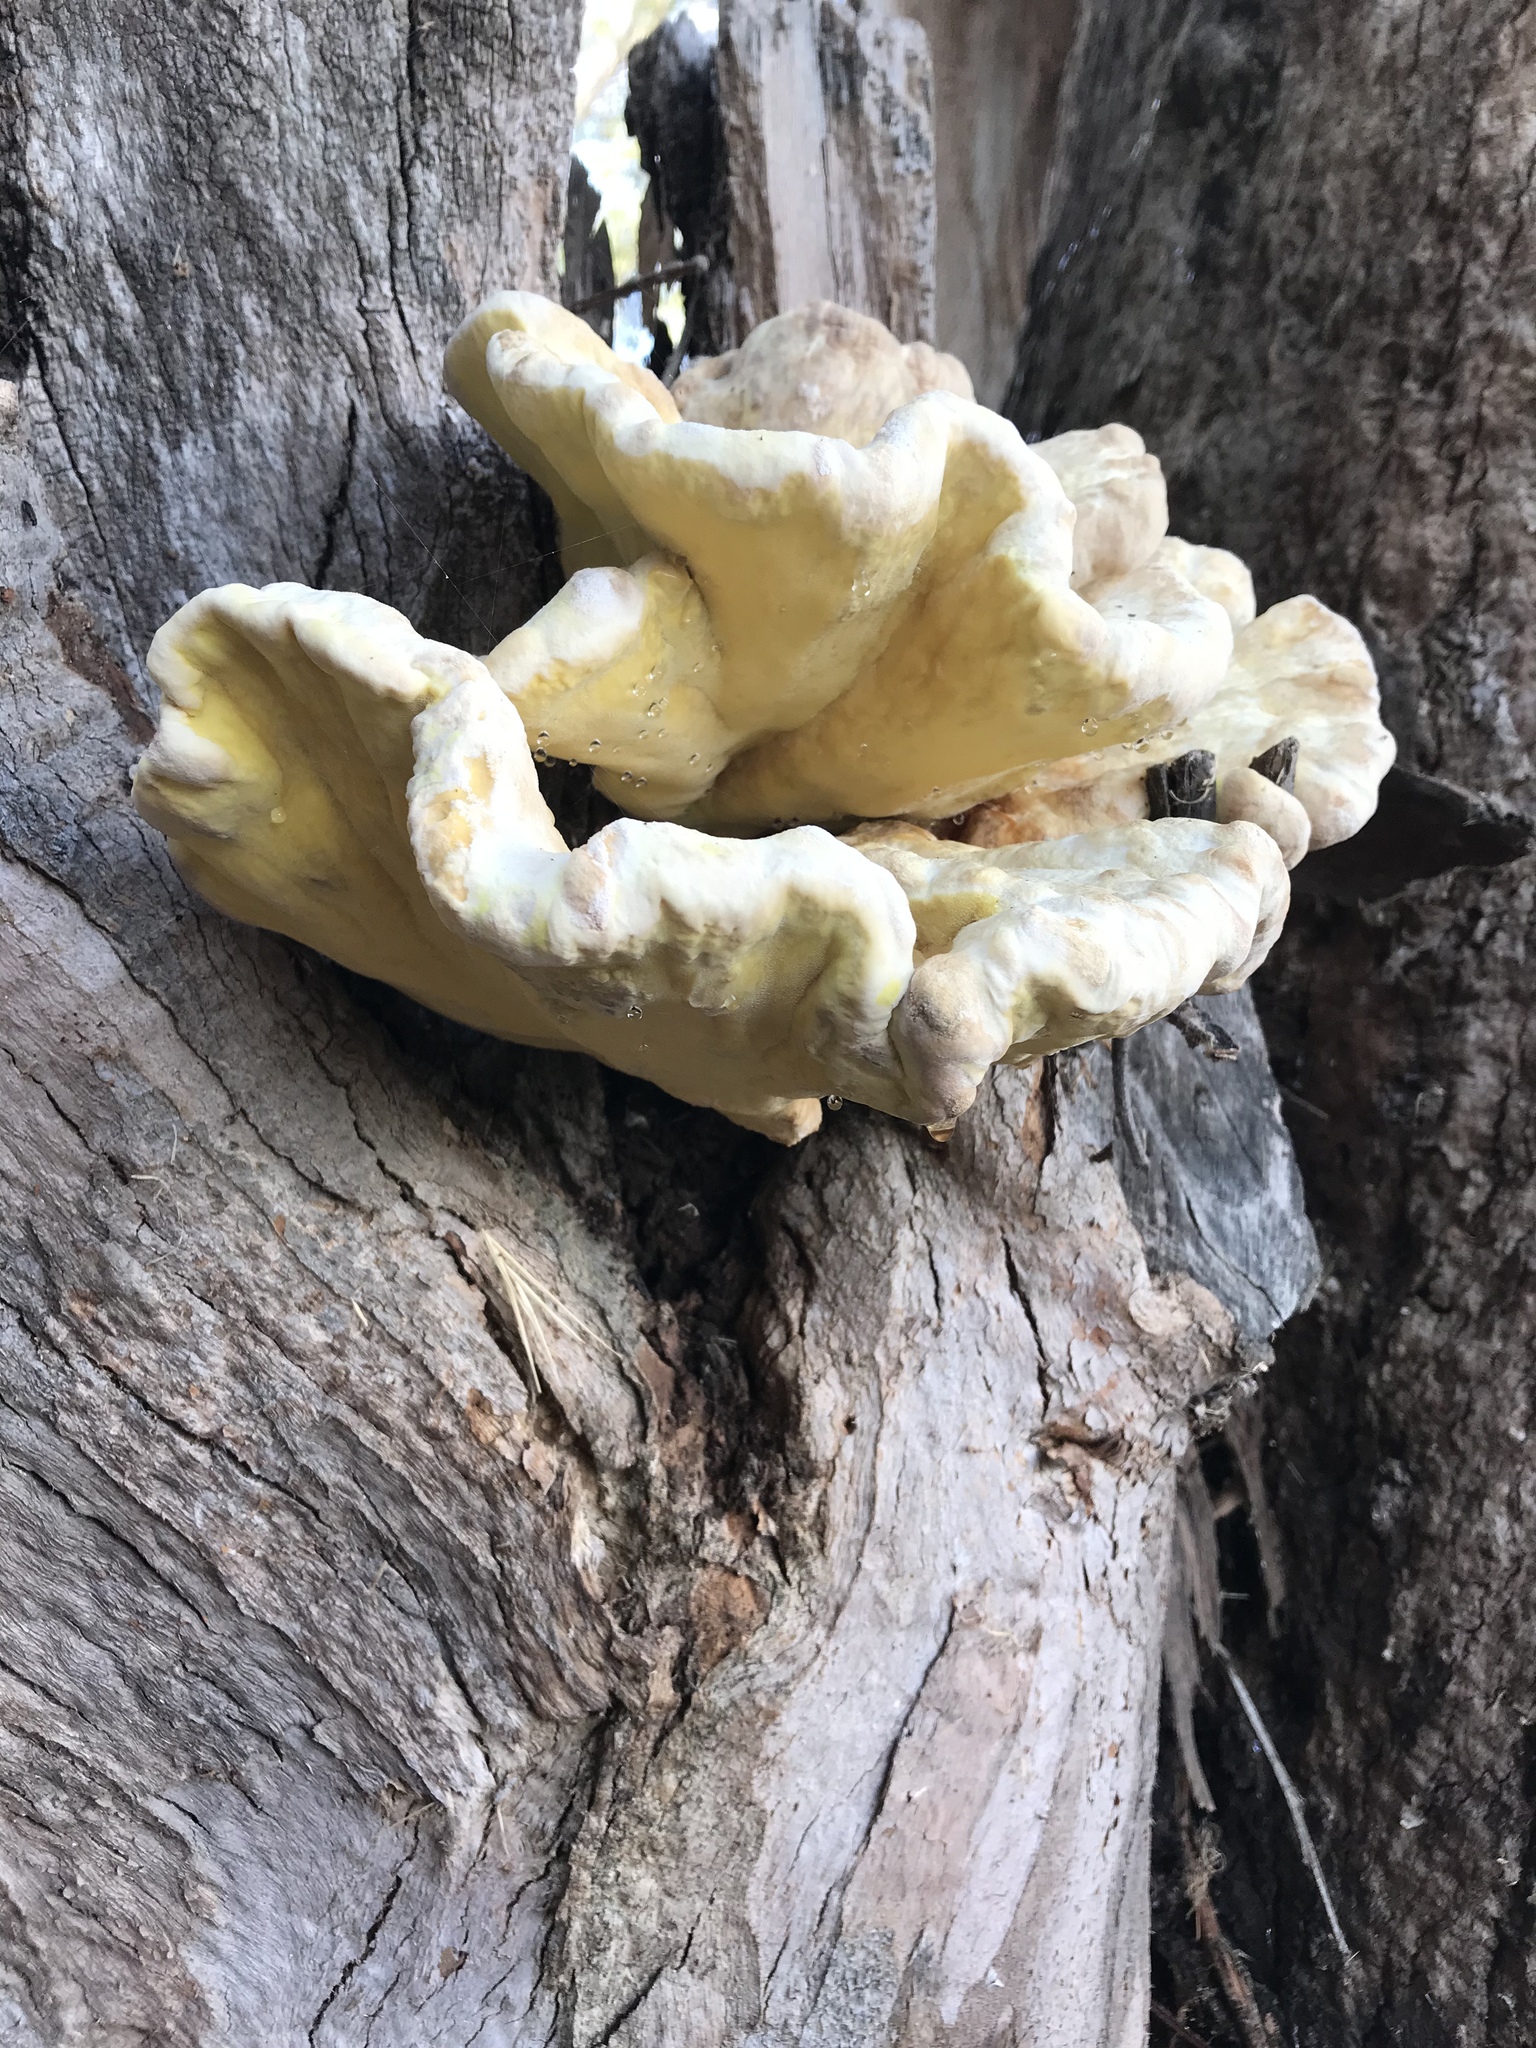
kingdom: Fungi
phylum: Basidiomycota
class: Agaricomycetes
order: Polyporales
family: Laetiporaceae
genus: Laetiporus
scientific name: Laetiporus gilbertsonii
